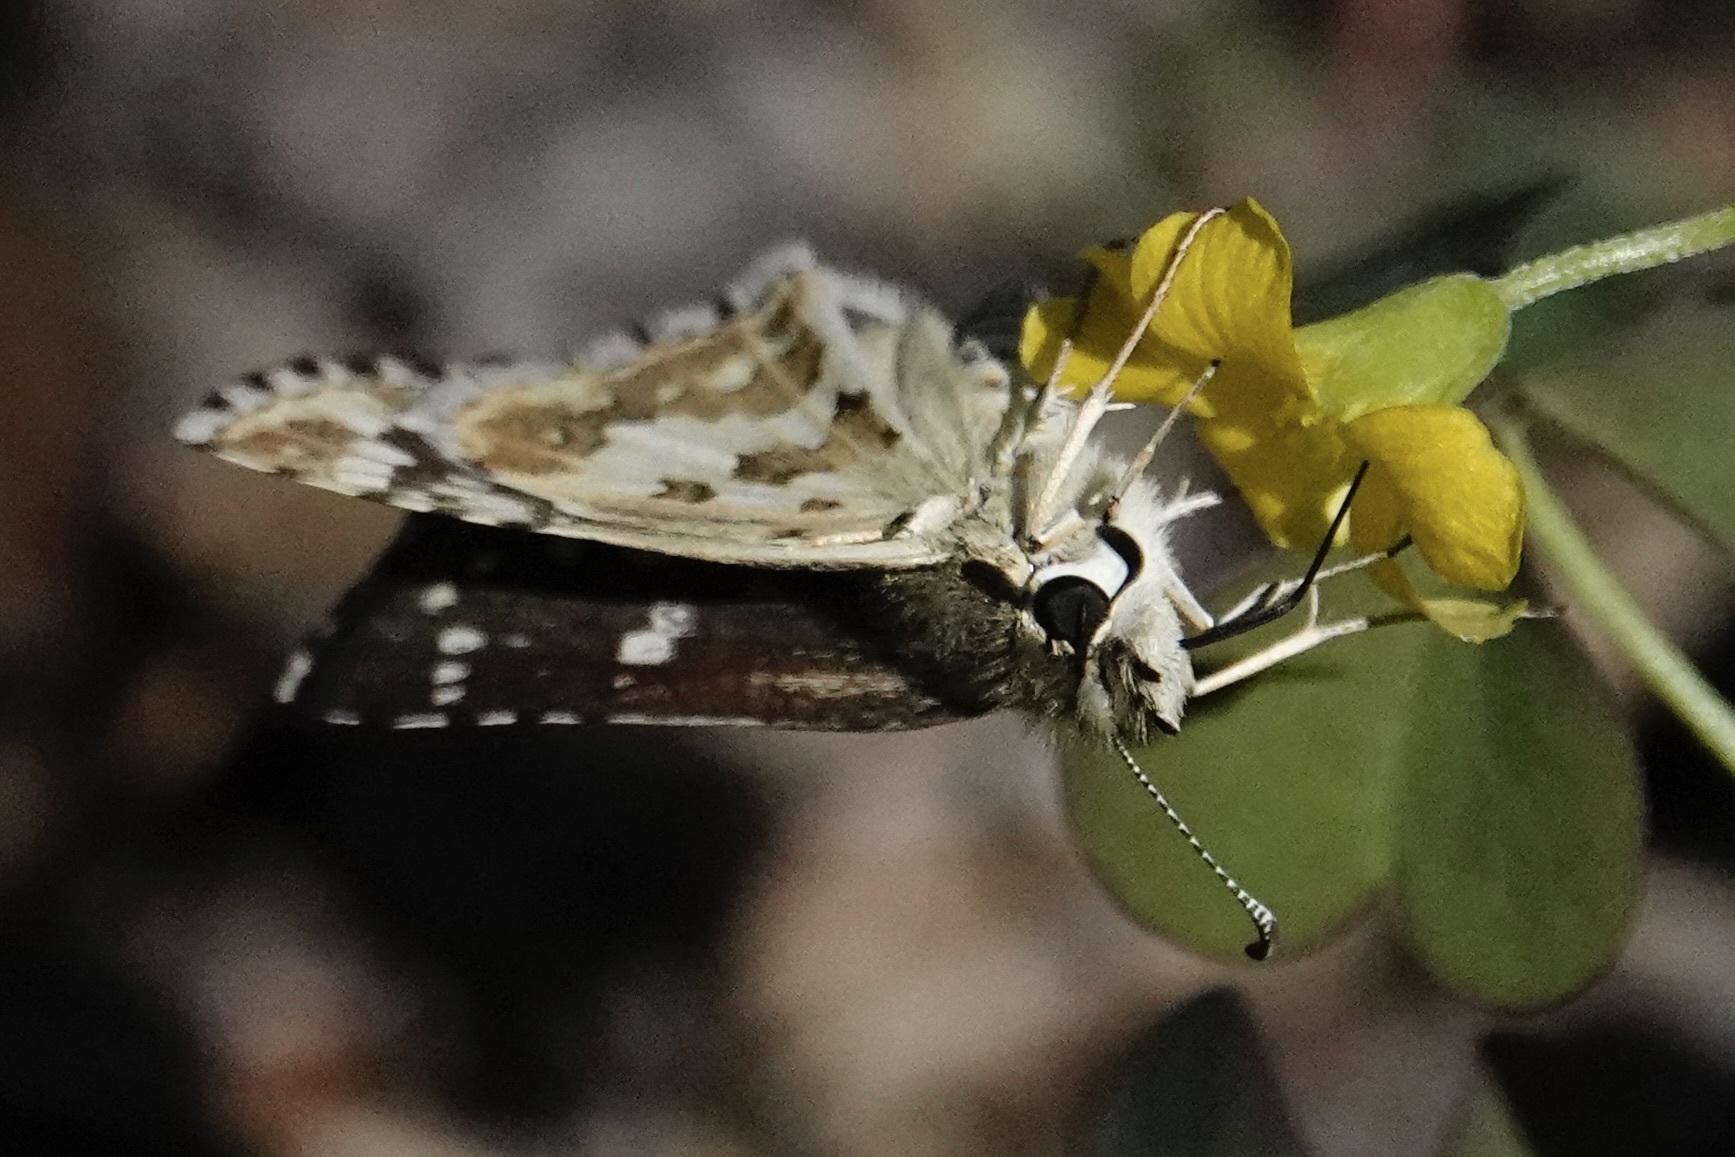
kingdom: Animalia
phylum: Arthropoda
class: Insecta
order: Lepidoptera
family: Hesperiidae
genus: Burnsius
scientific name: Burnsius communis
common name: Common checkered-skipper
